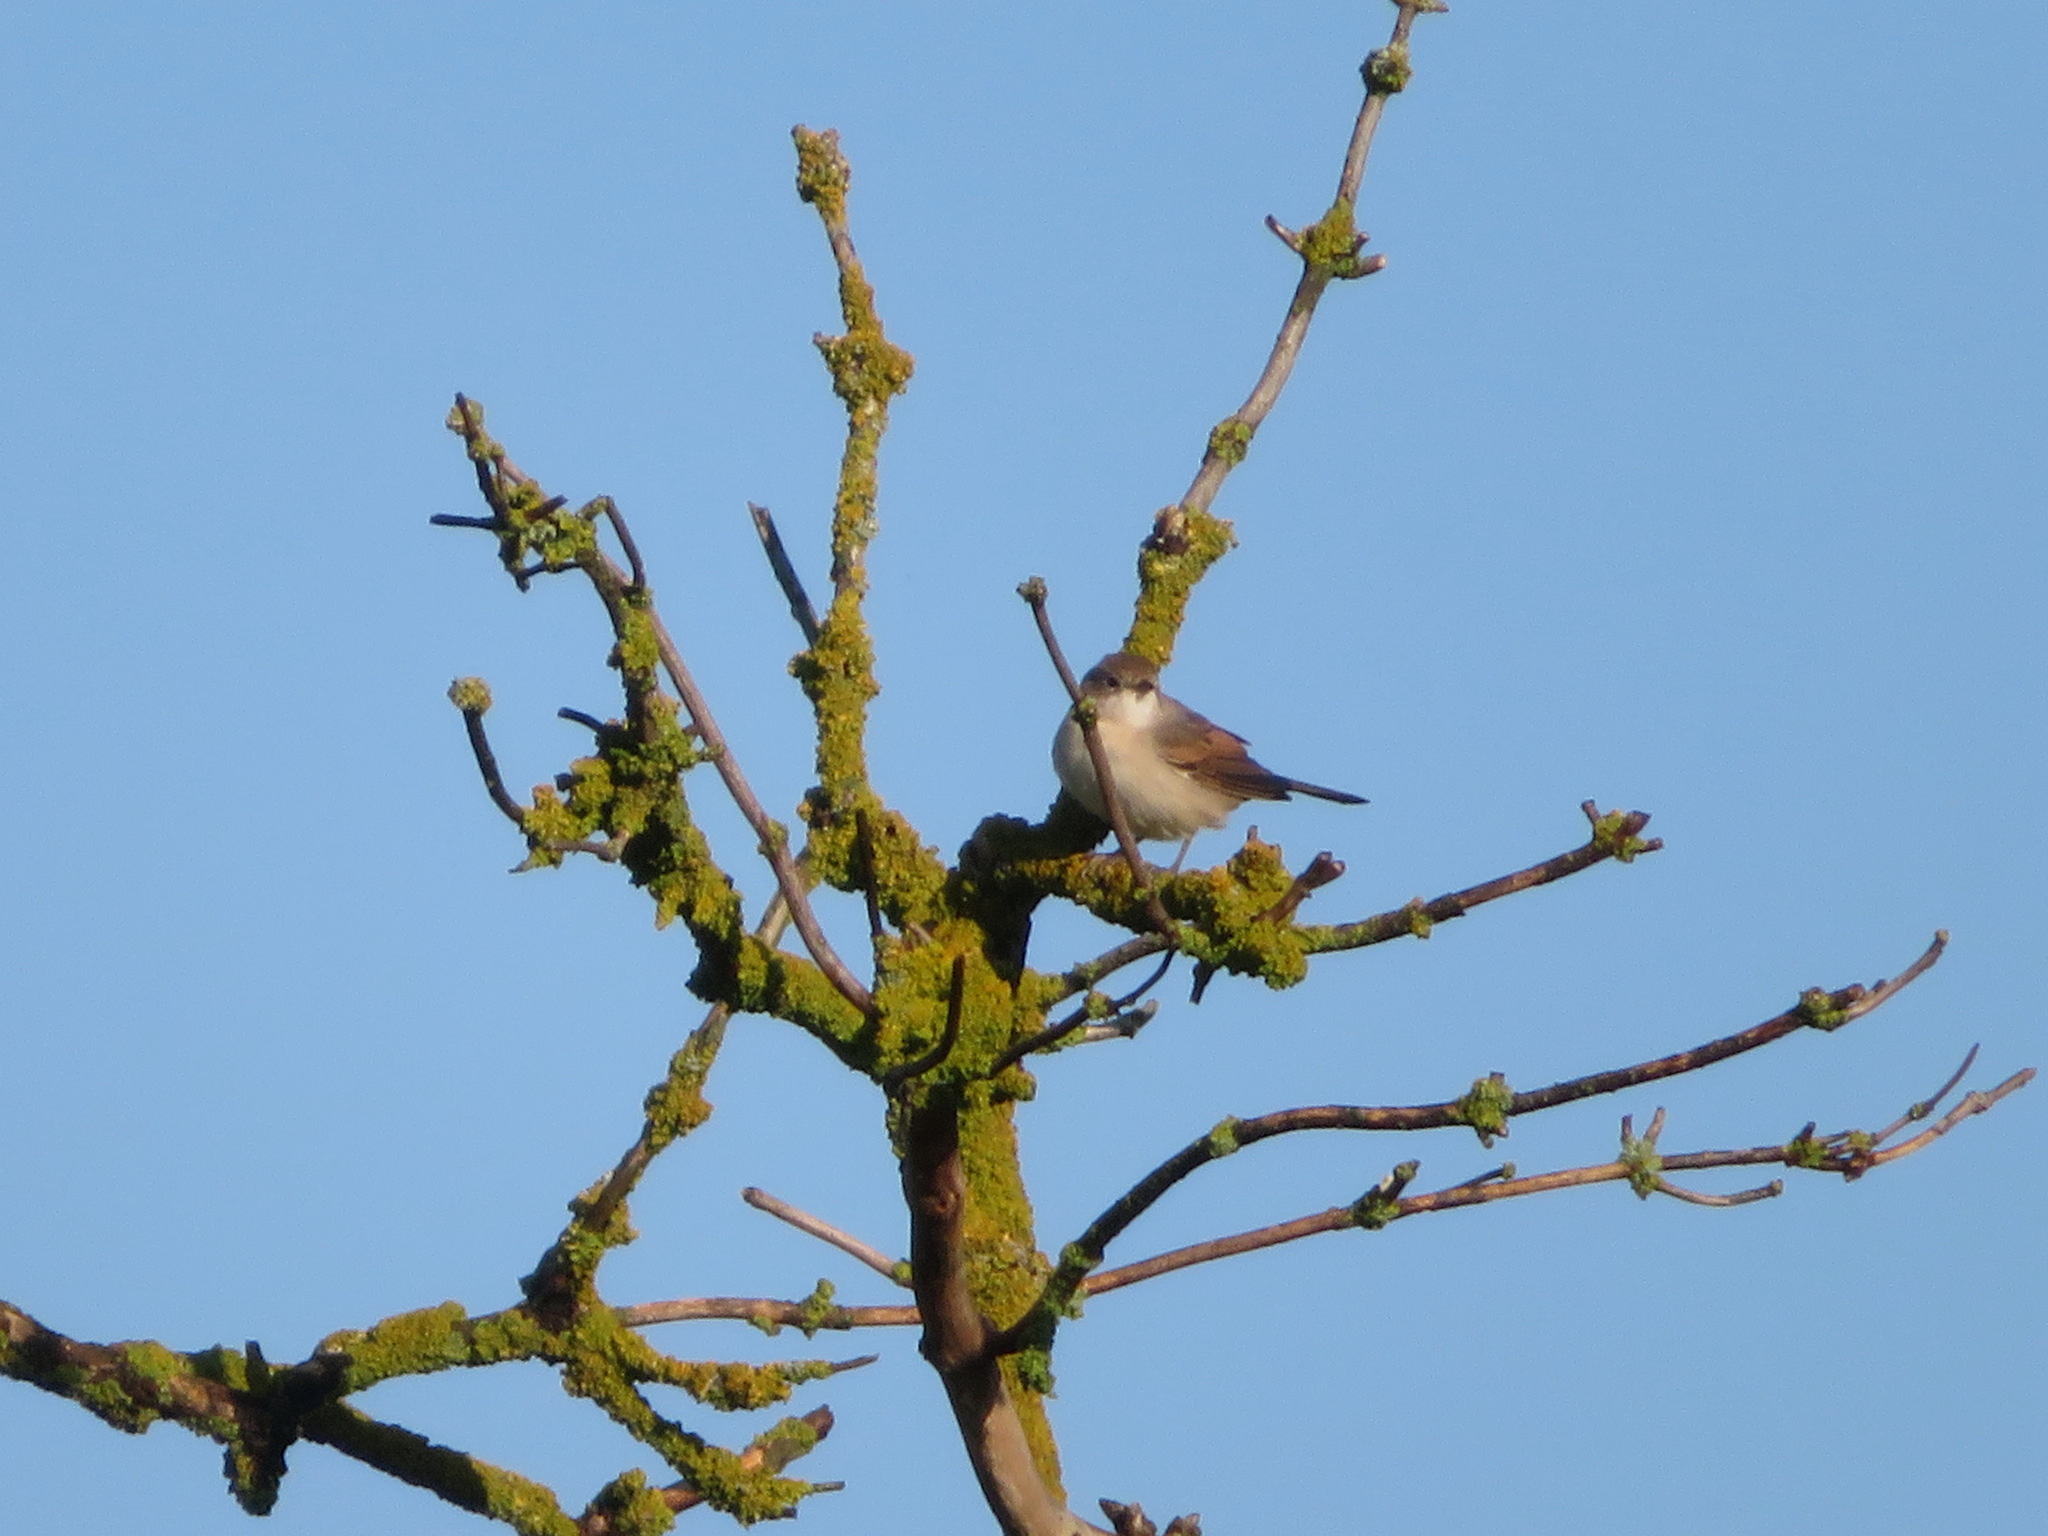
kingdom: Animalia
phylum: Chordata
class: Aves
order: Passeriformes
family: Sylviidae
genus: Sylvia
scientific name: Sylvia communis
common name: Common whitethroat
